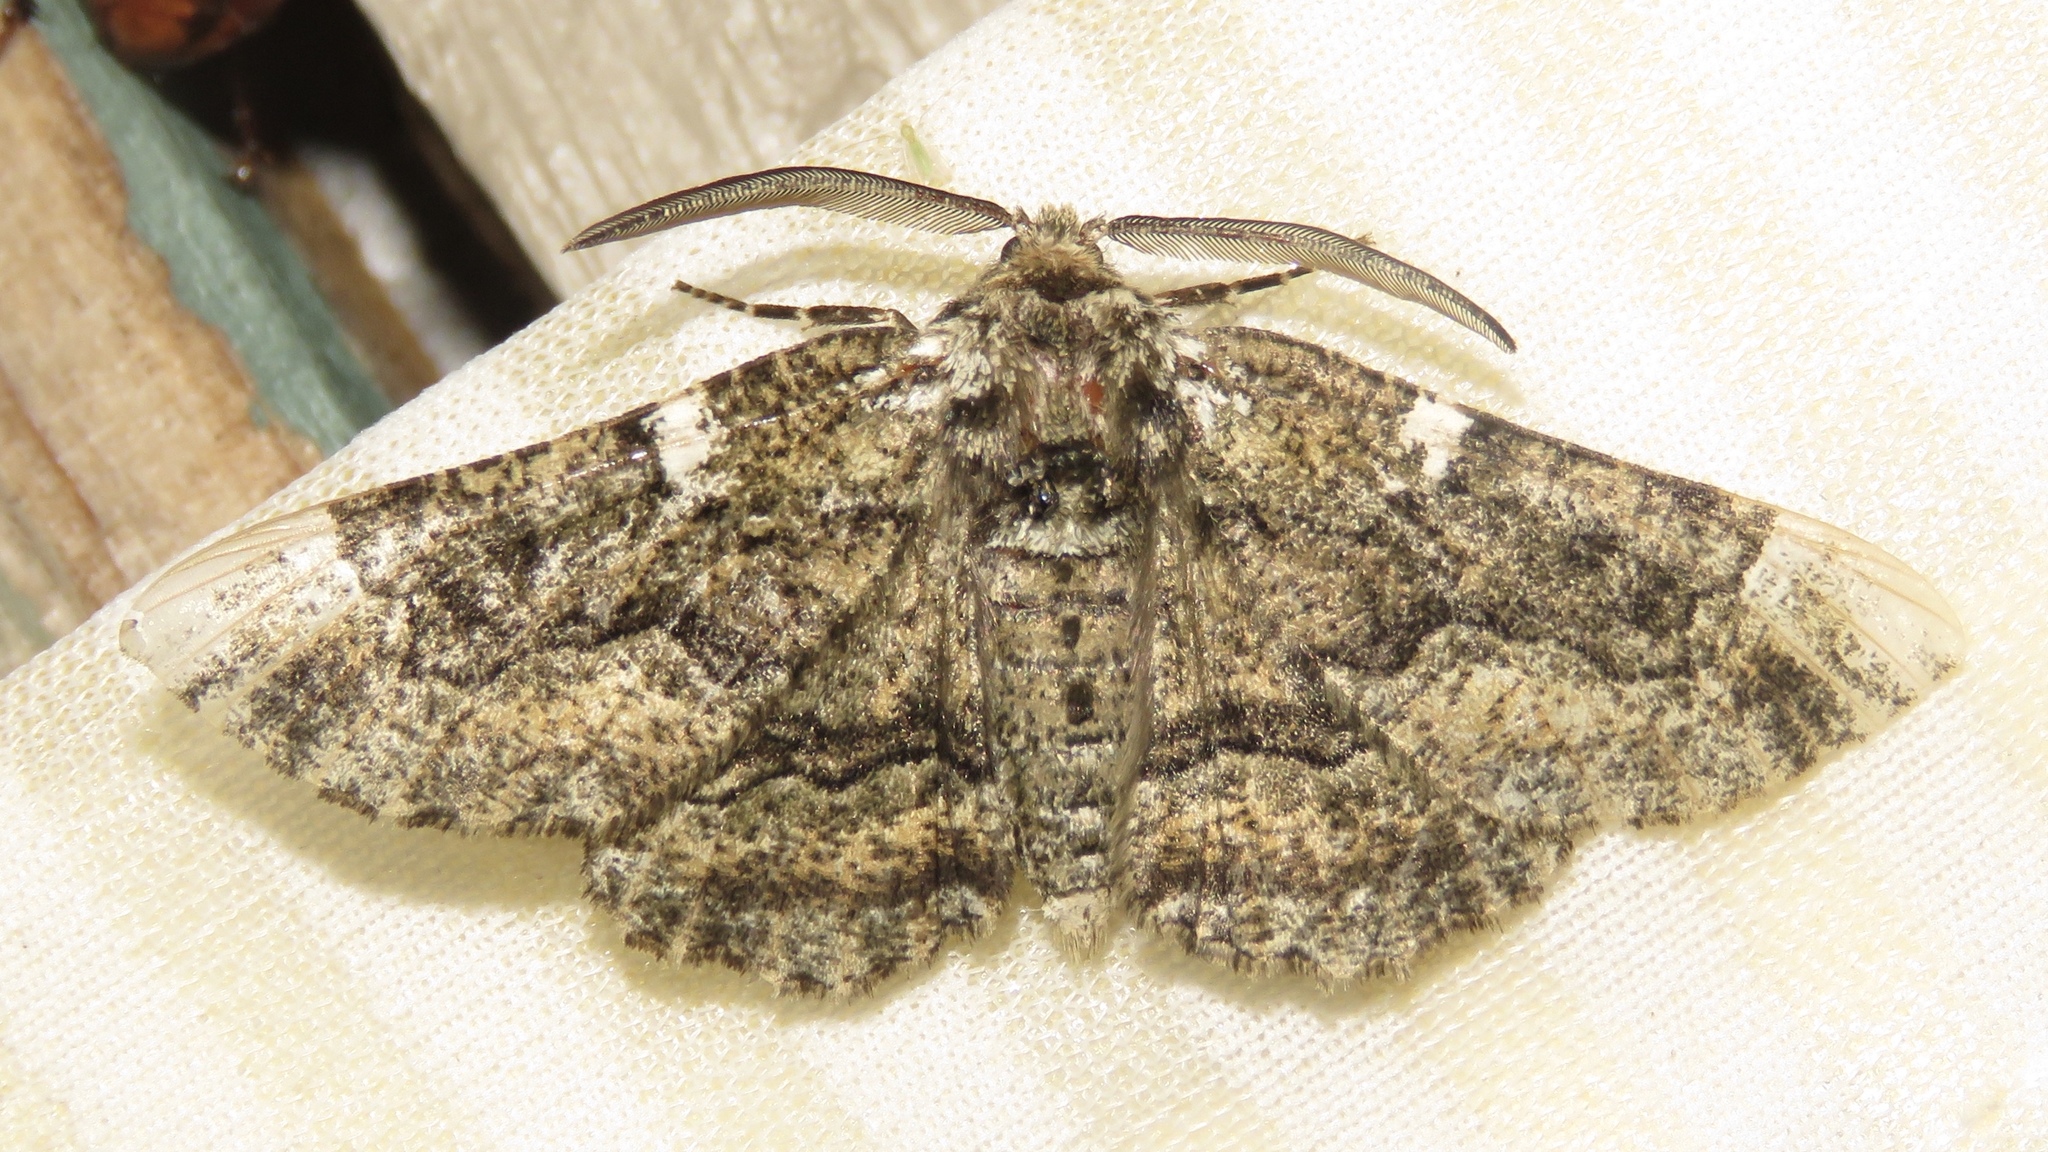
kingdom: Animalia
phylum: Arthropoda
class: Insecta
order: Lepidoptera
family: Geometridae
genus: Phaeoura
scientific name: Phaeoura quernaria
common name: Oak beauty
